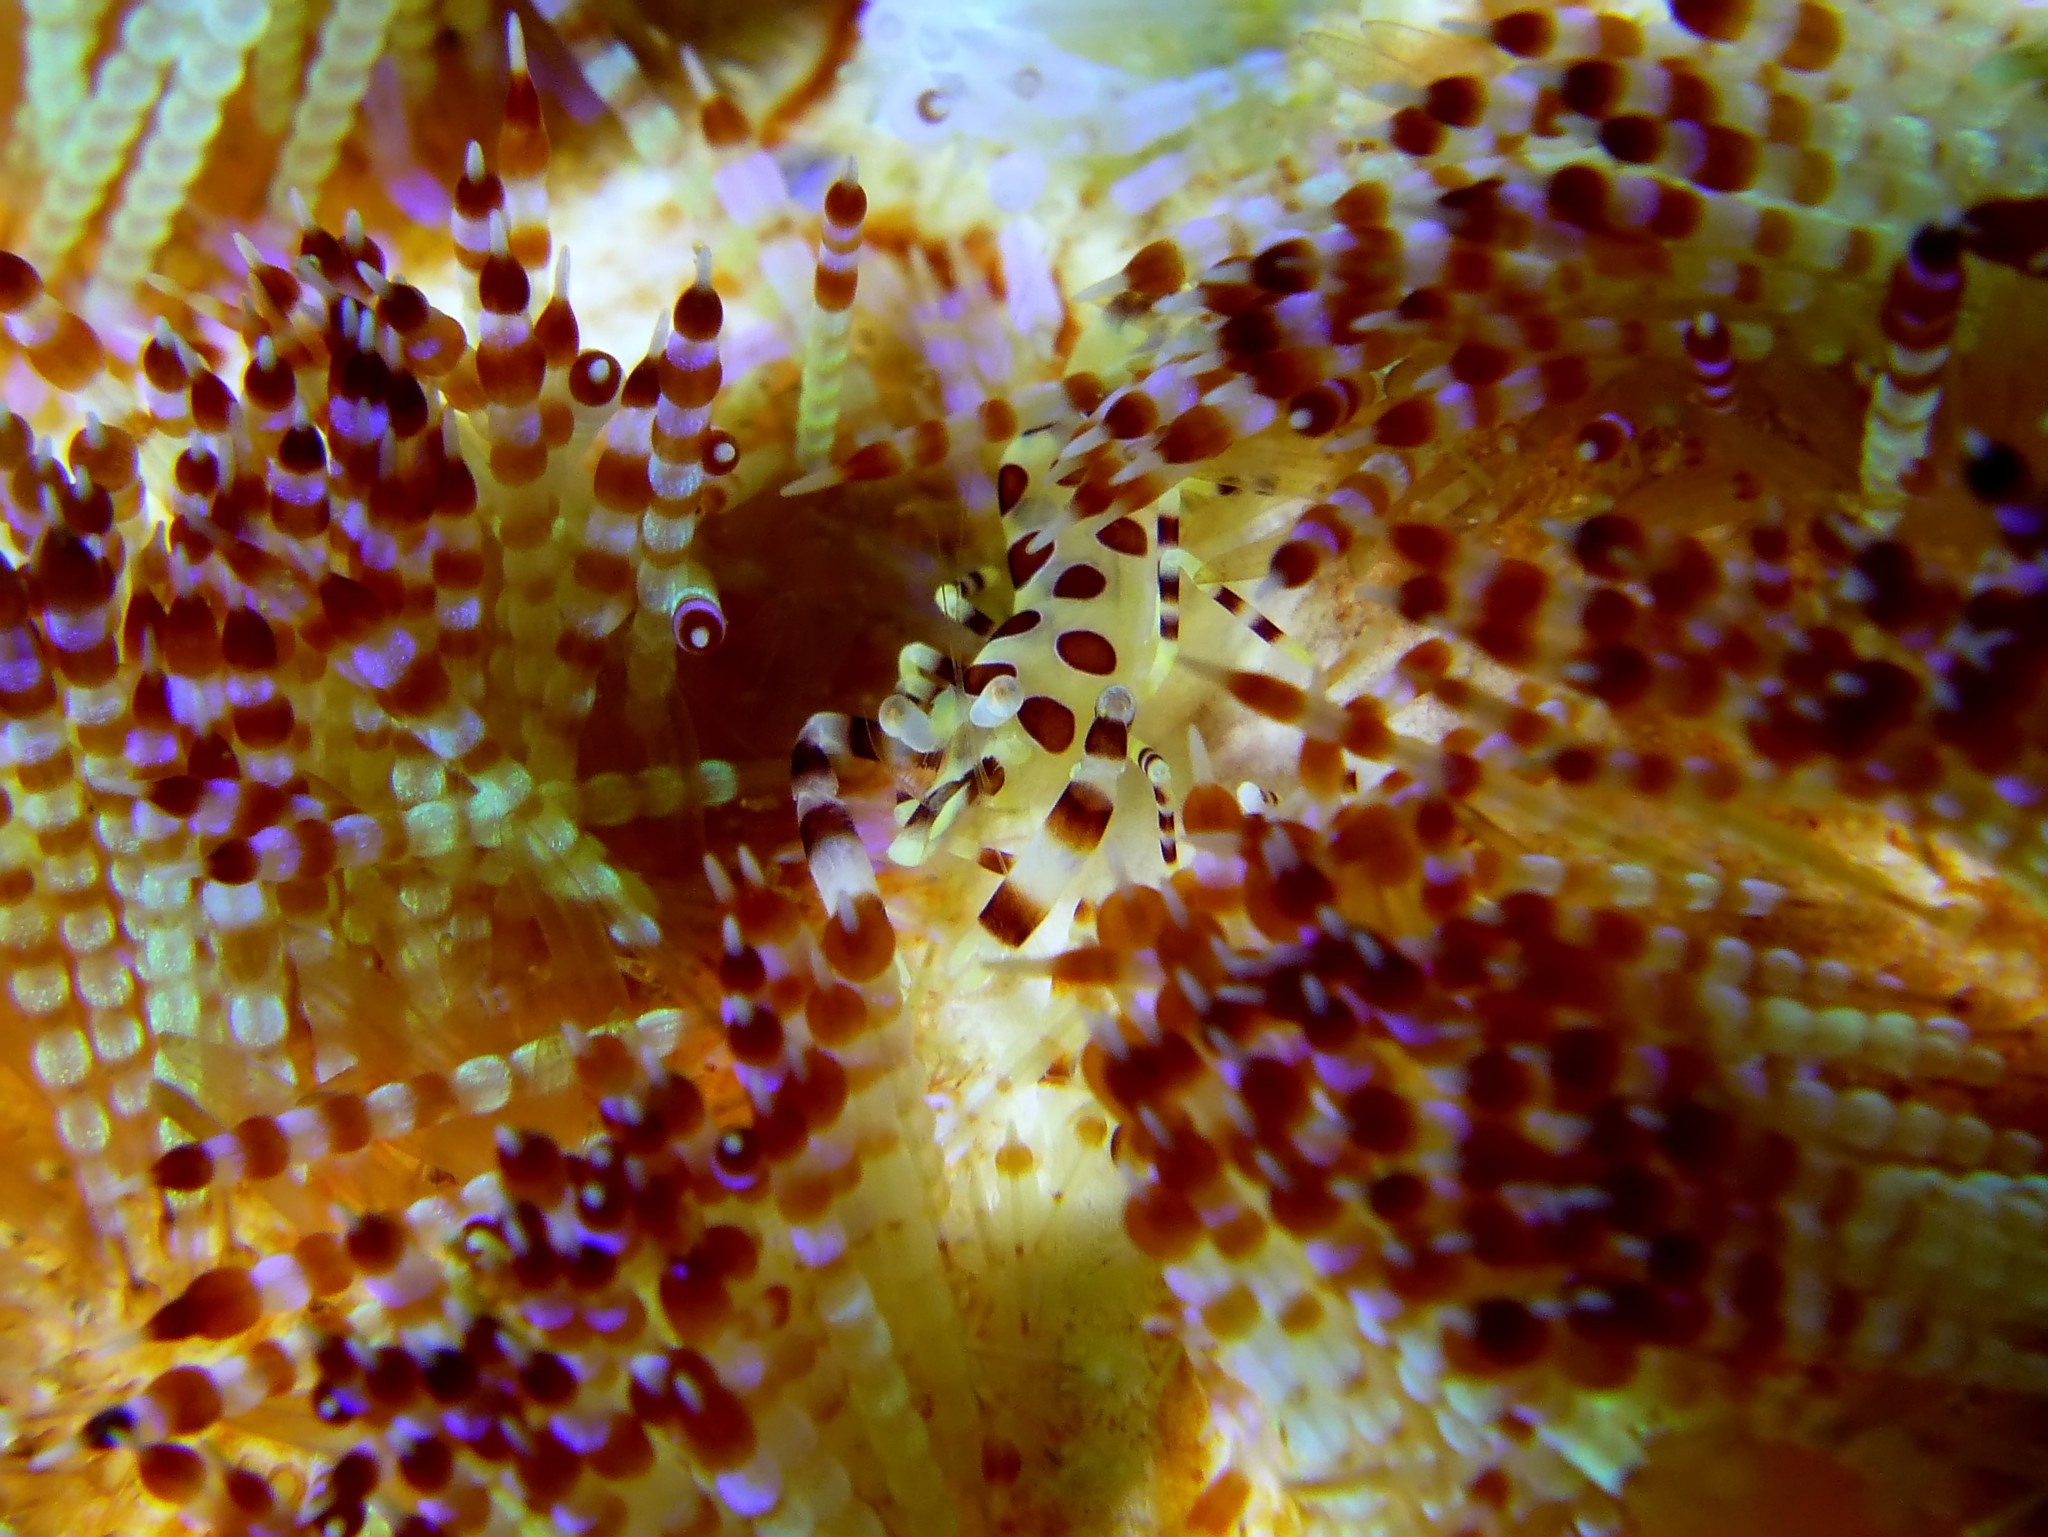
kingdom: Animalia
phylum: Arthropoda
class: Malacostraca
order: Decapoda
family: Palaemonidae
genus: Periclimenes
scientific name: Periclimenes colemani
